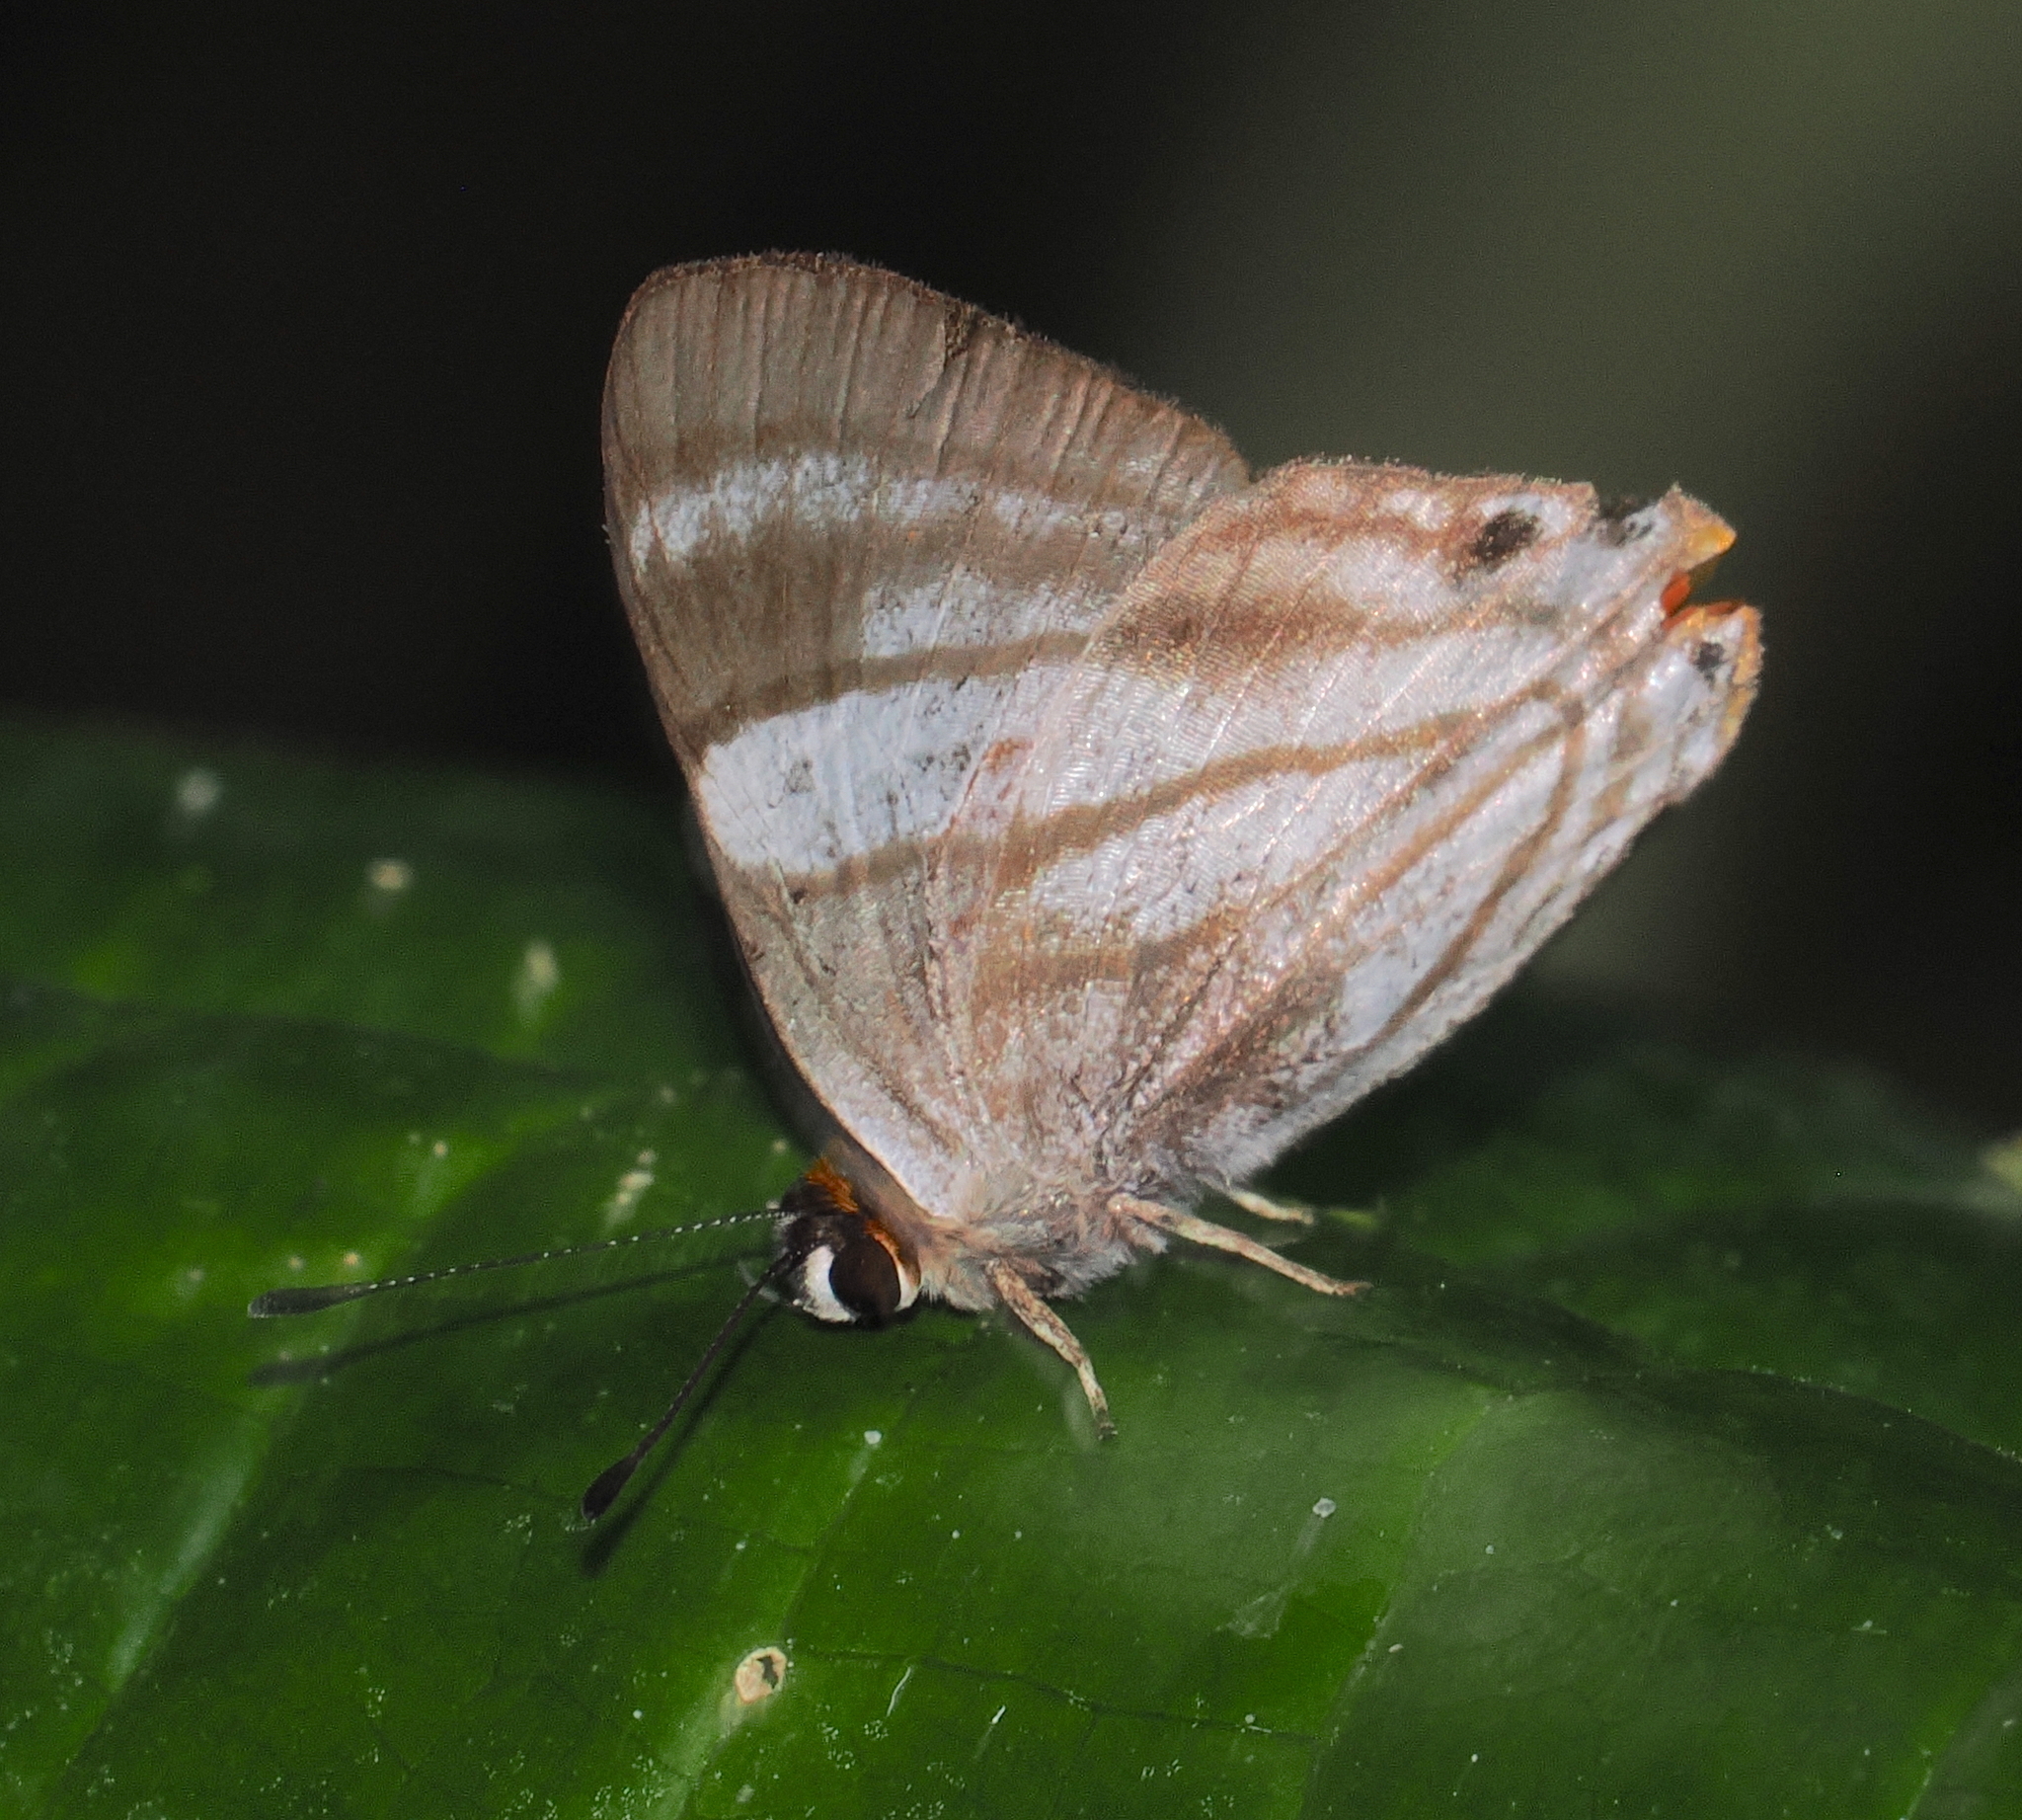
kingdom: Animalia
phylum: Arthropoda
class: Insecta
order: Lepidoptera
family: Riodinidae
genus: Pelolasia
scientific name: Pelolasia
